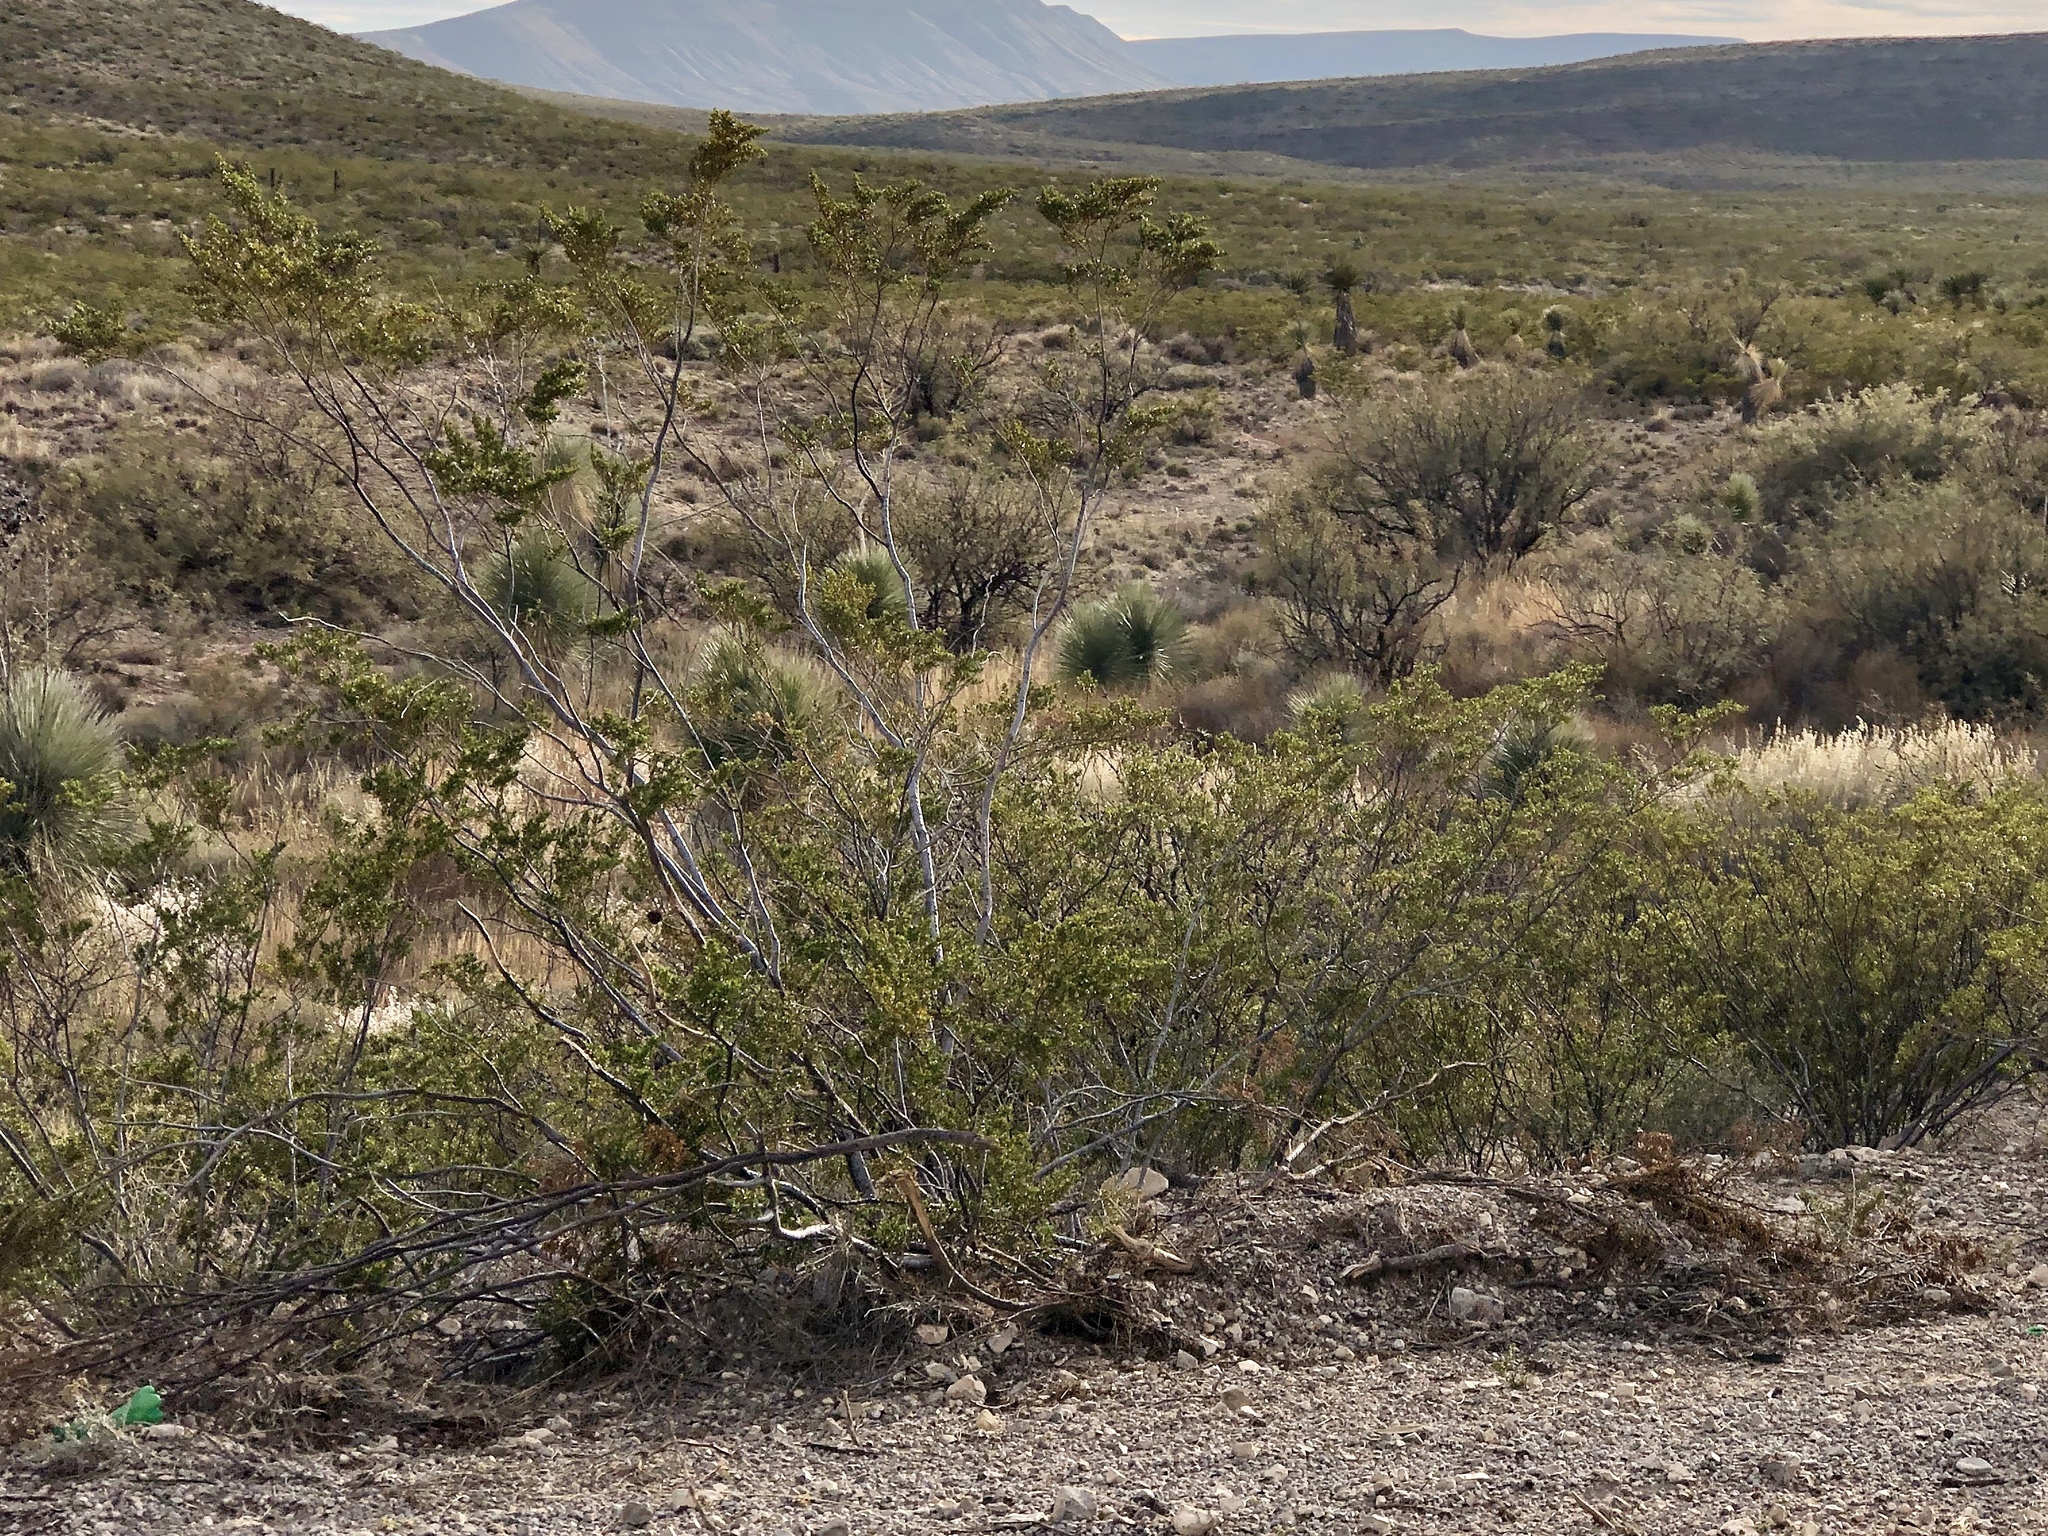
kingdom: Plantae
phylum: Tracheophyta
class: Magnoliopsida
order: Zygophyllales
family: Zygophyllaceae
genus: Larrea
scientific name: Larrea tridentata
